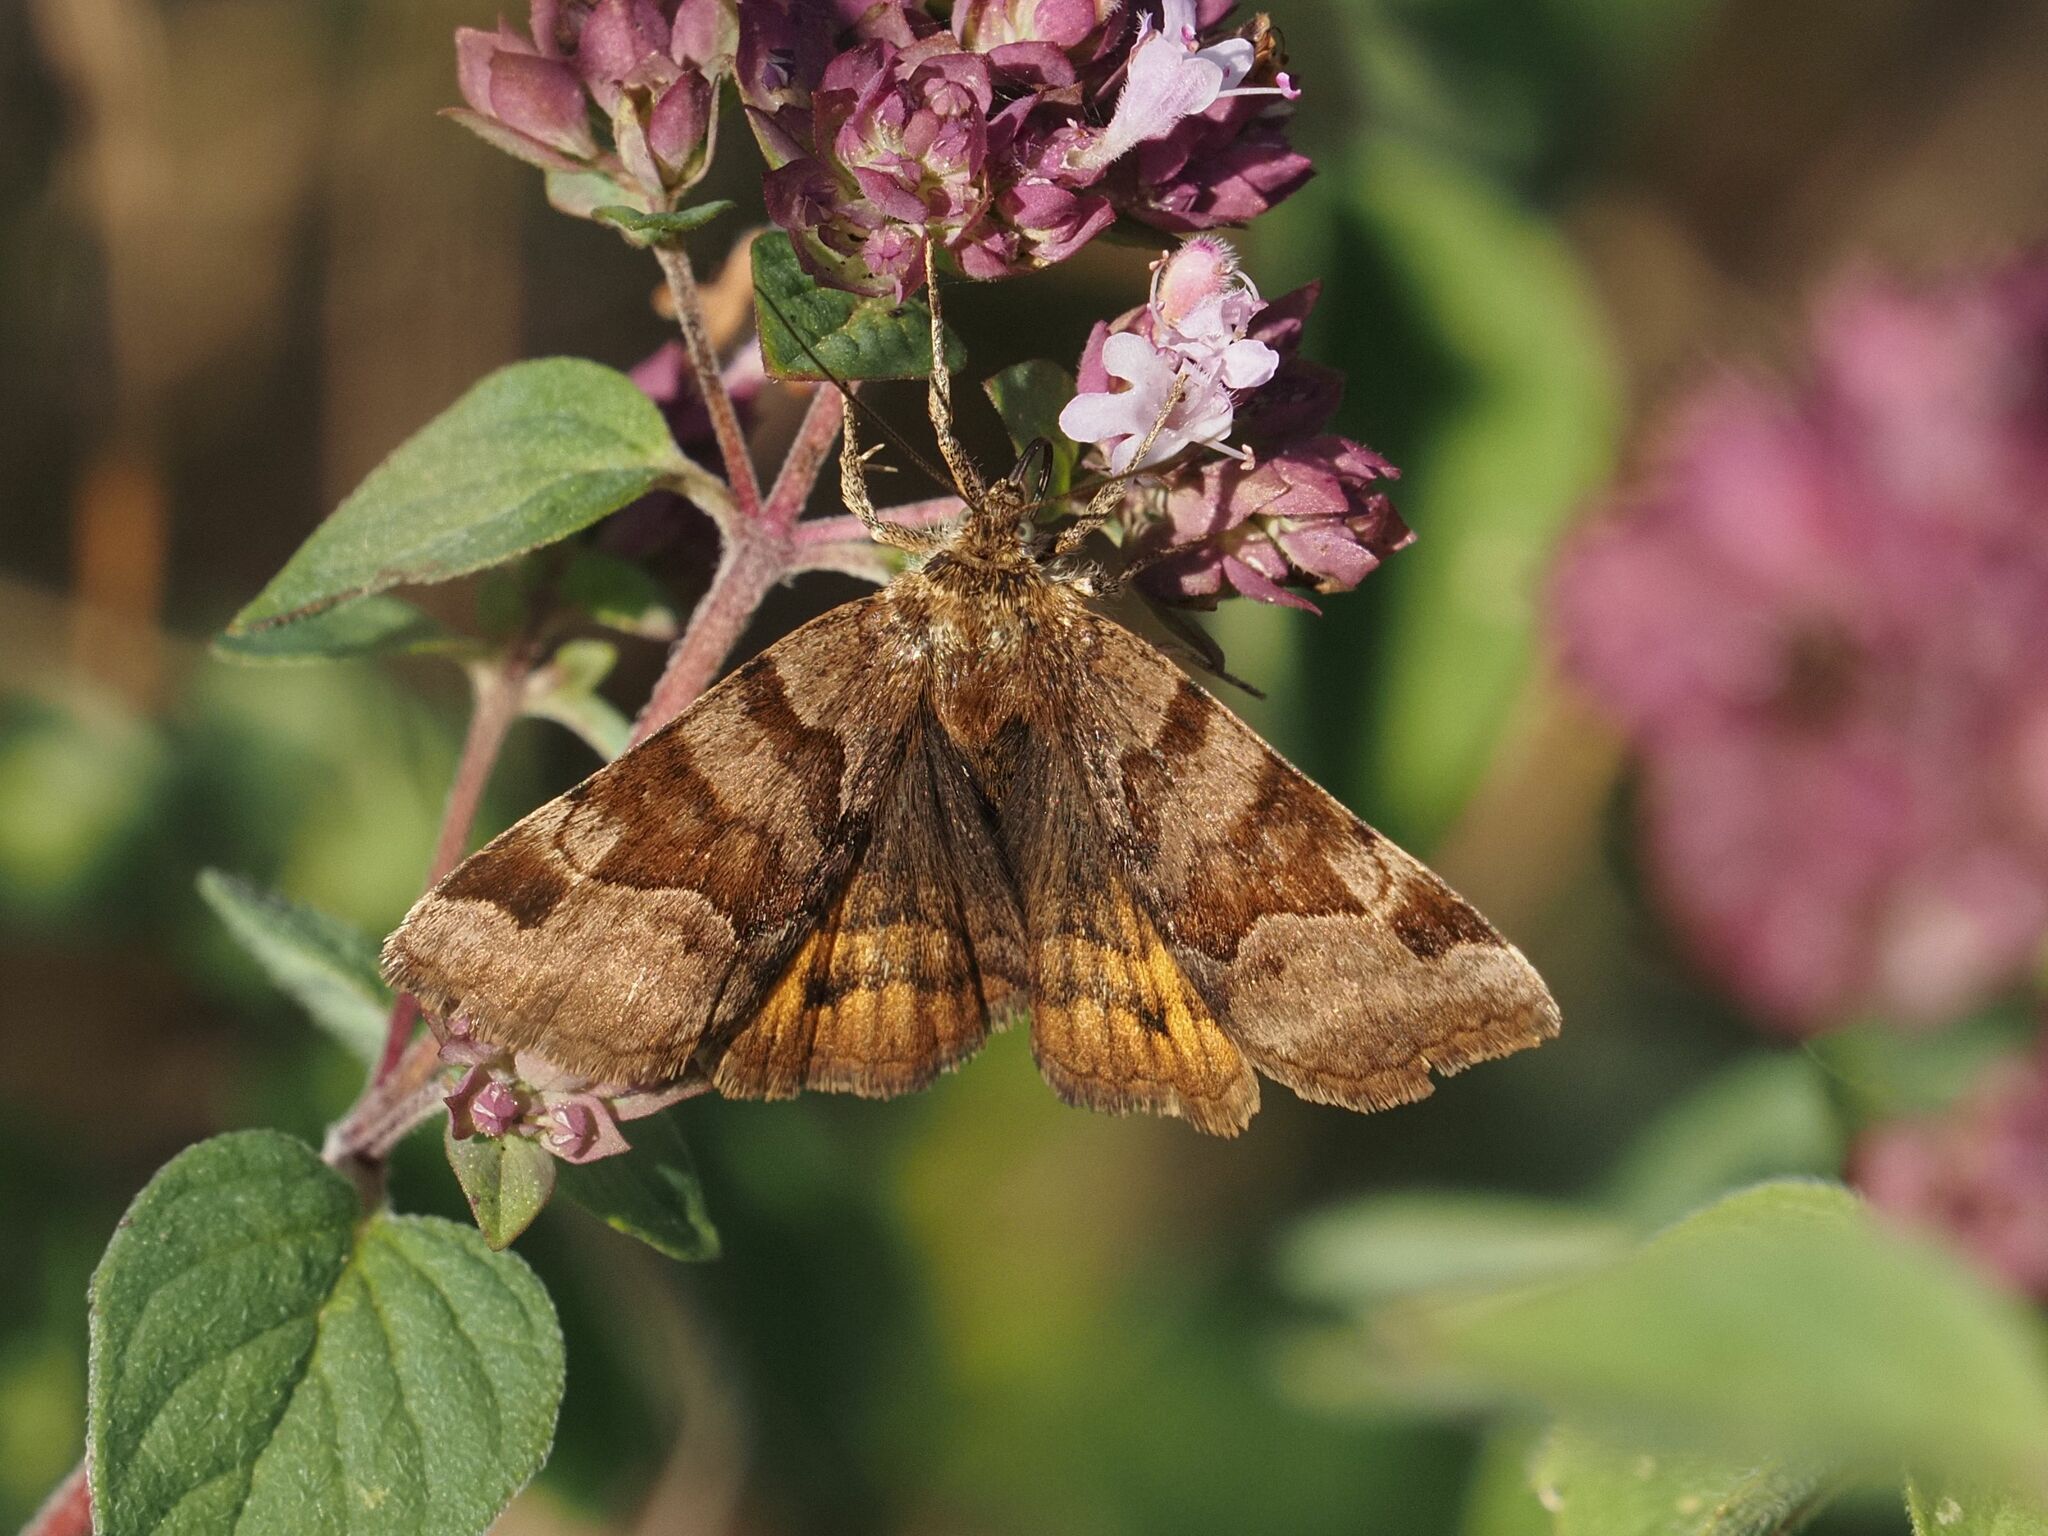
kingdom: Animalia
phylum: Arthropoda
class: Insecta
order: Lepidoptera
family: Erebidae
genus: Euclidia
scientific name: Euclidia glyphica
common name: Burnet companion
